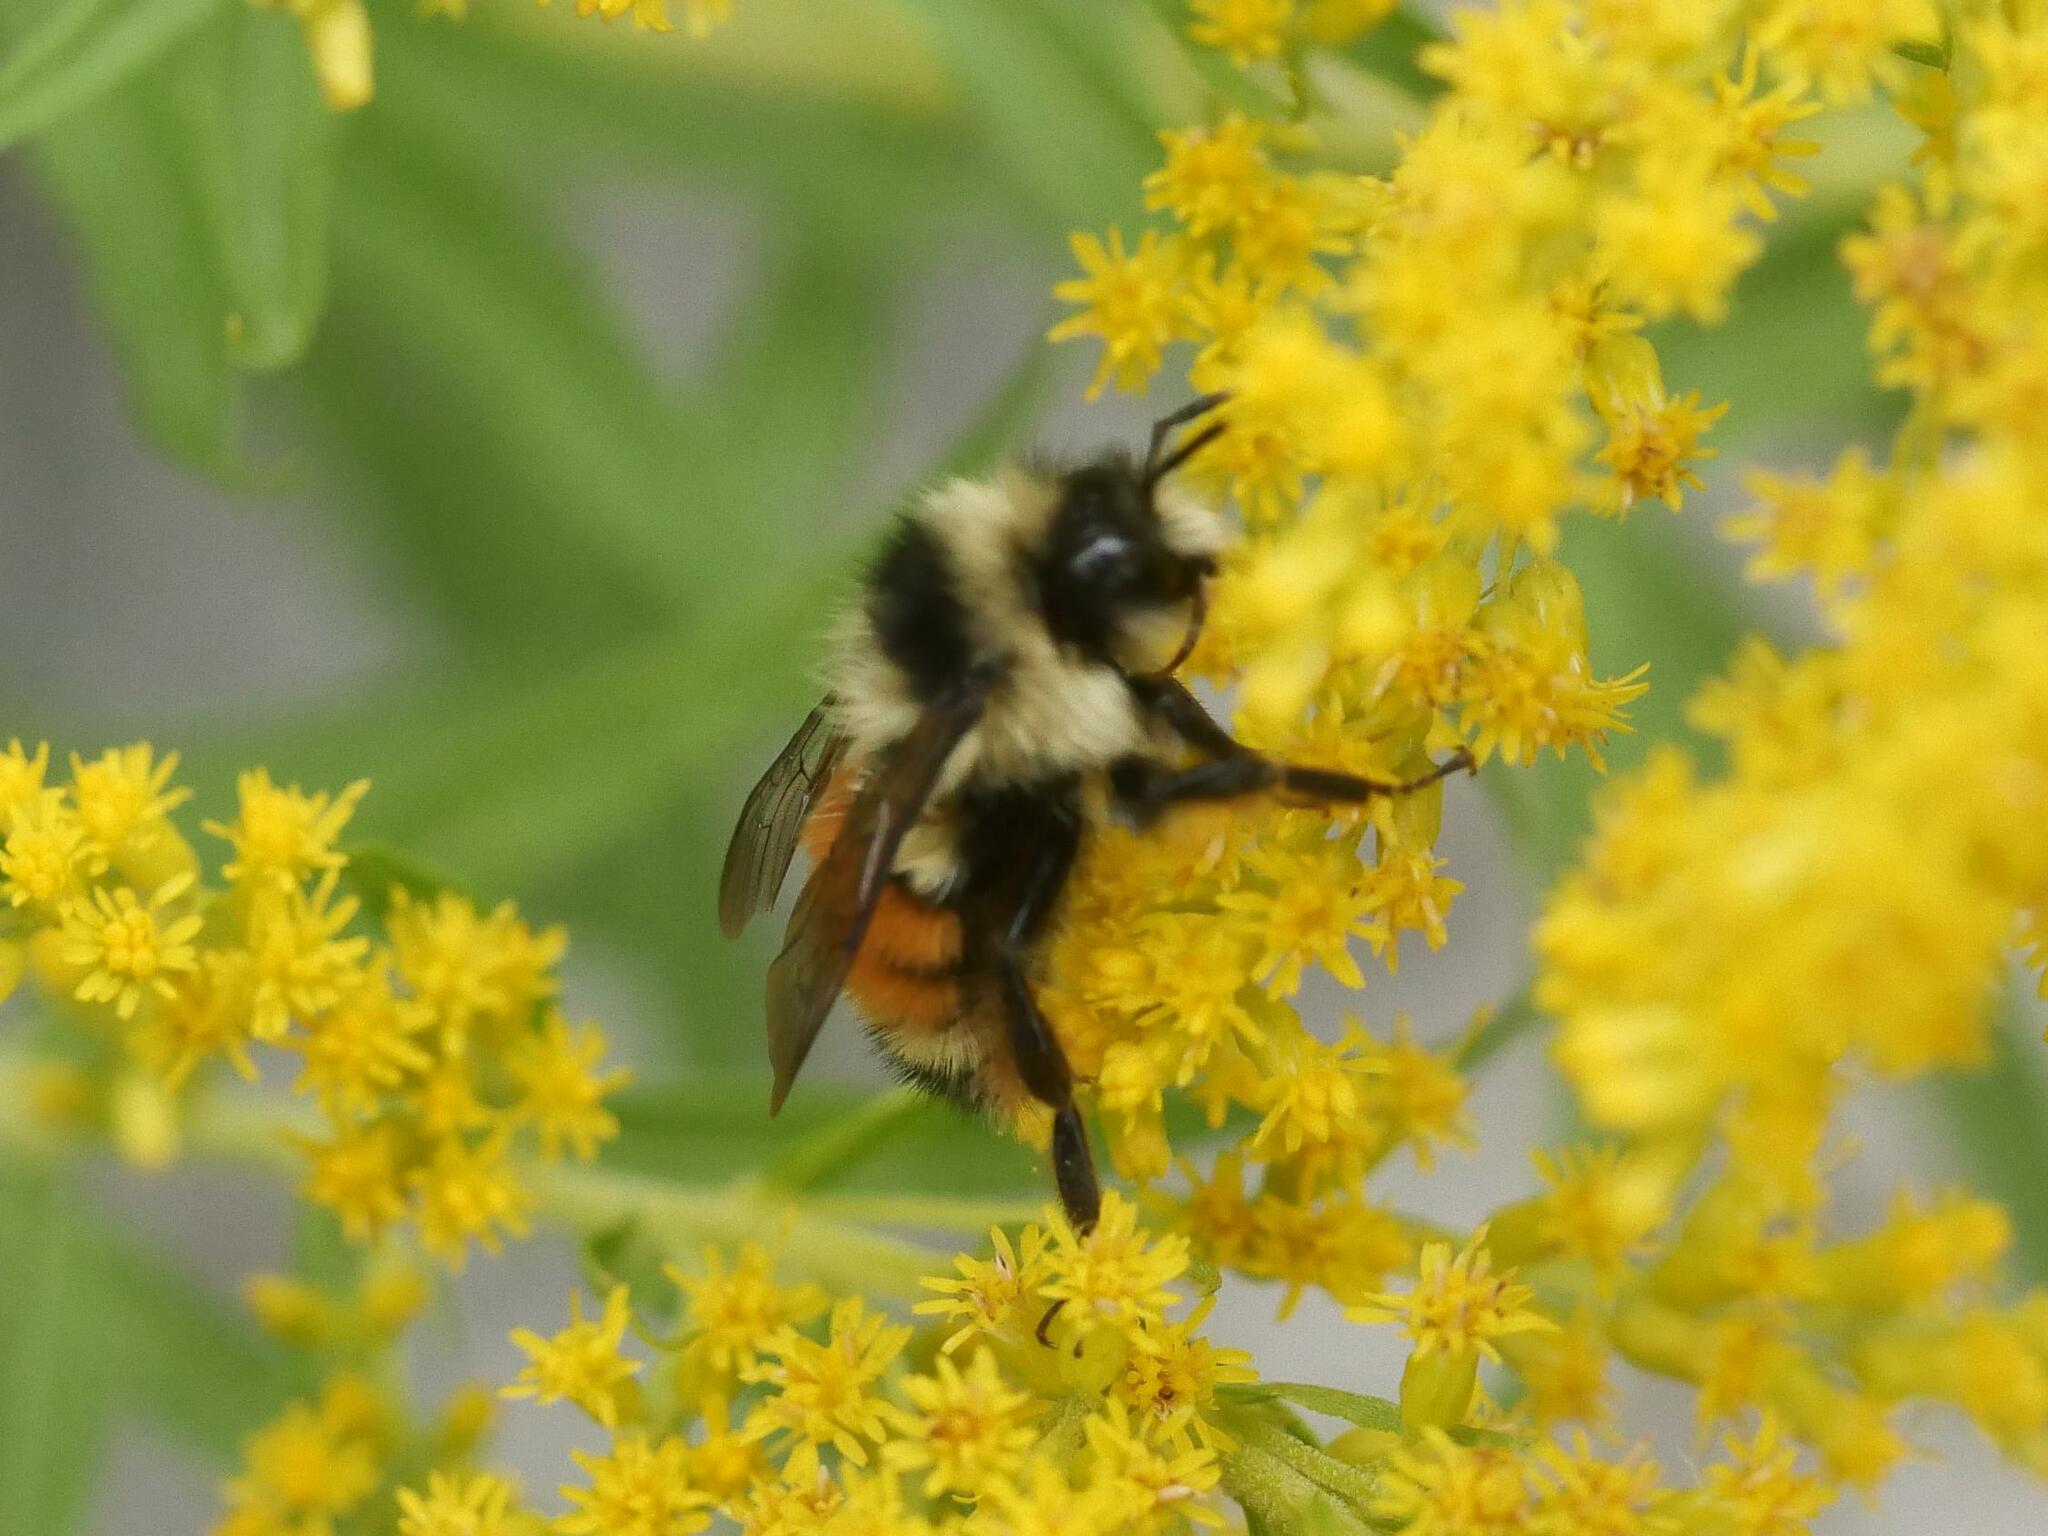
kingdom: Animalia
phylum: Arthropoda
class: Insecta
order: Hymenoptera
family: Apidae
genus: Bombus
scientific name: Bombus ternarius
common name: Tri-colored bumble bee
